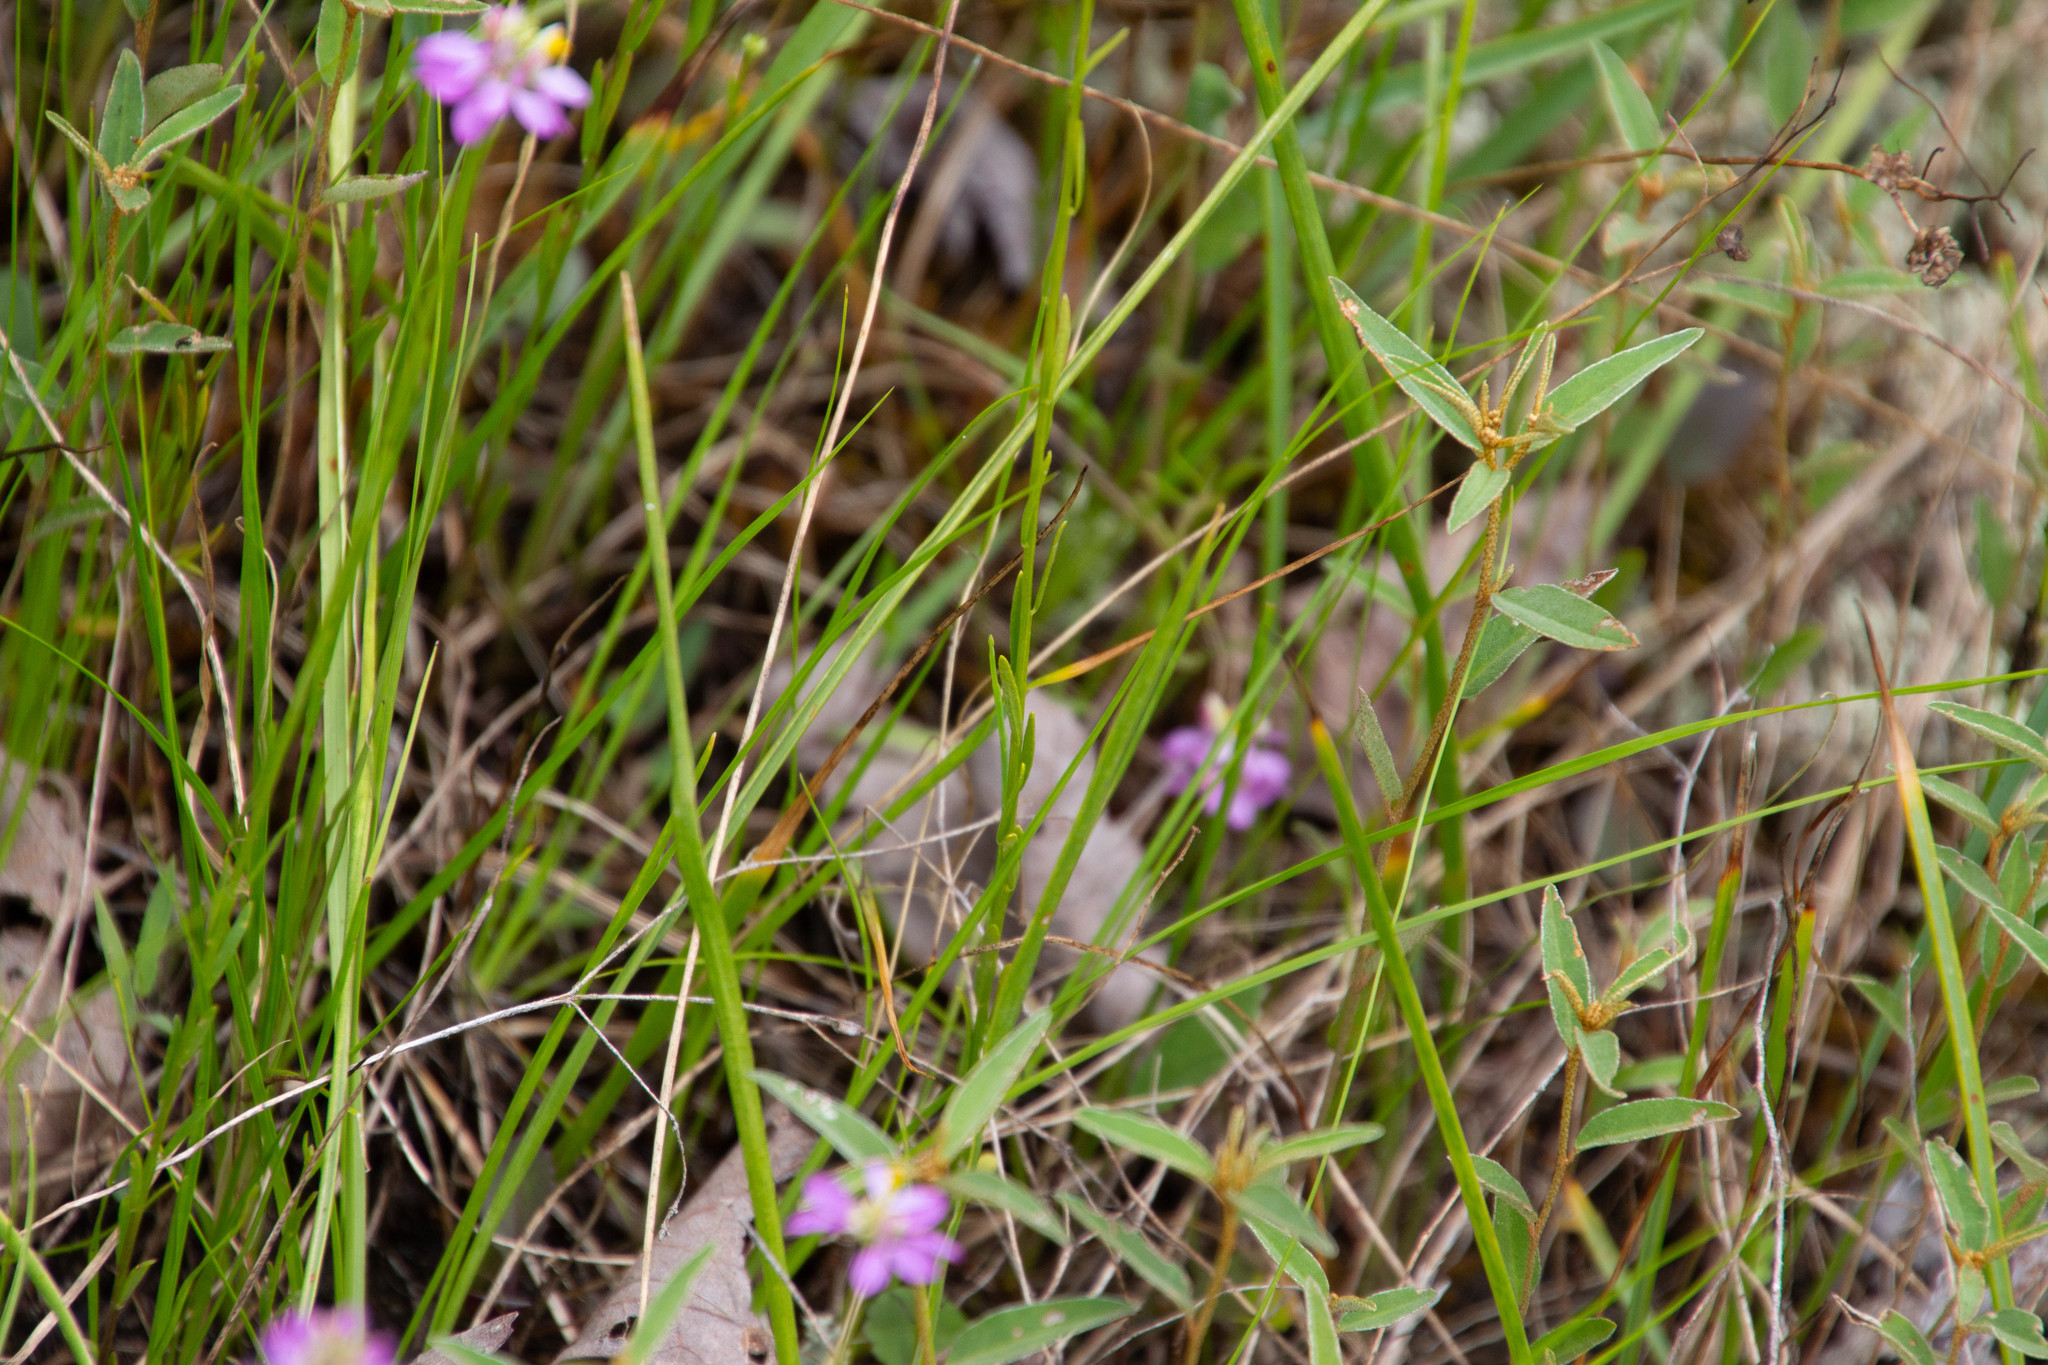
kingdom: Plantae
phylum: Tracheophyta
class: Magnoliopsida
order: Fabales
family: Polygalaceae
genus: Polygala
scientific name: Polygala curtissii
